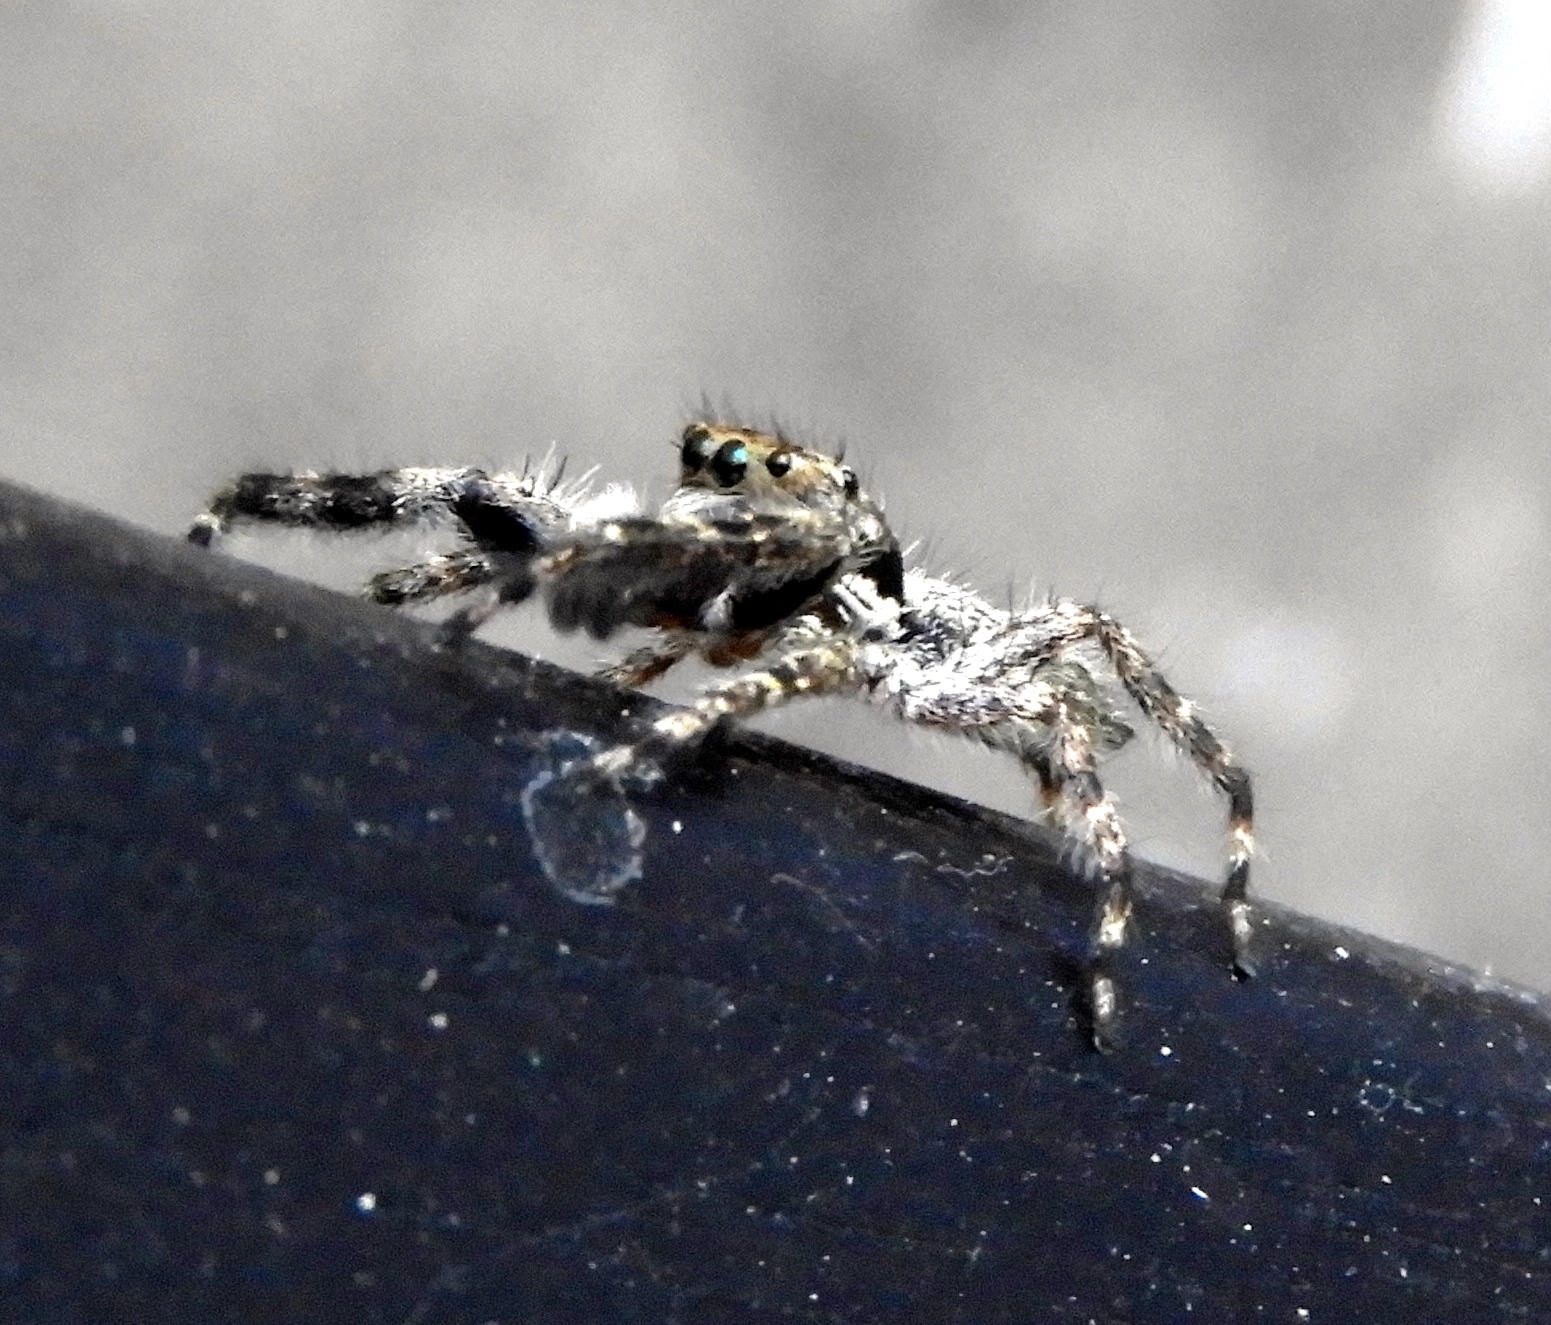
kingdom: Animalia
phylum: Arthropoda
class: Arachnida
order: Araneae
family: Salticidae
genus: Balmaceda
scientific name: Balmaceda
